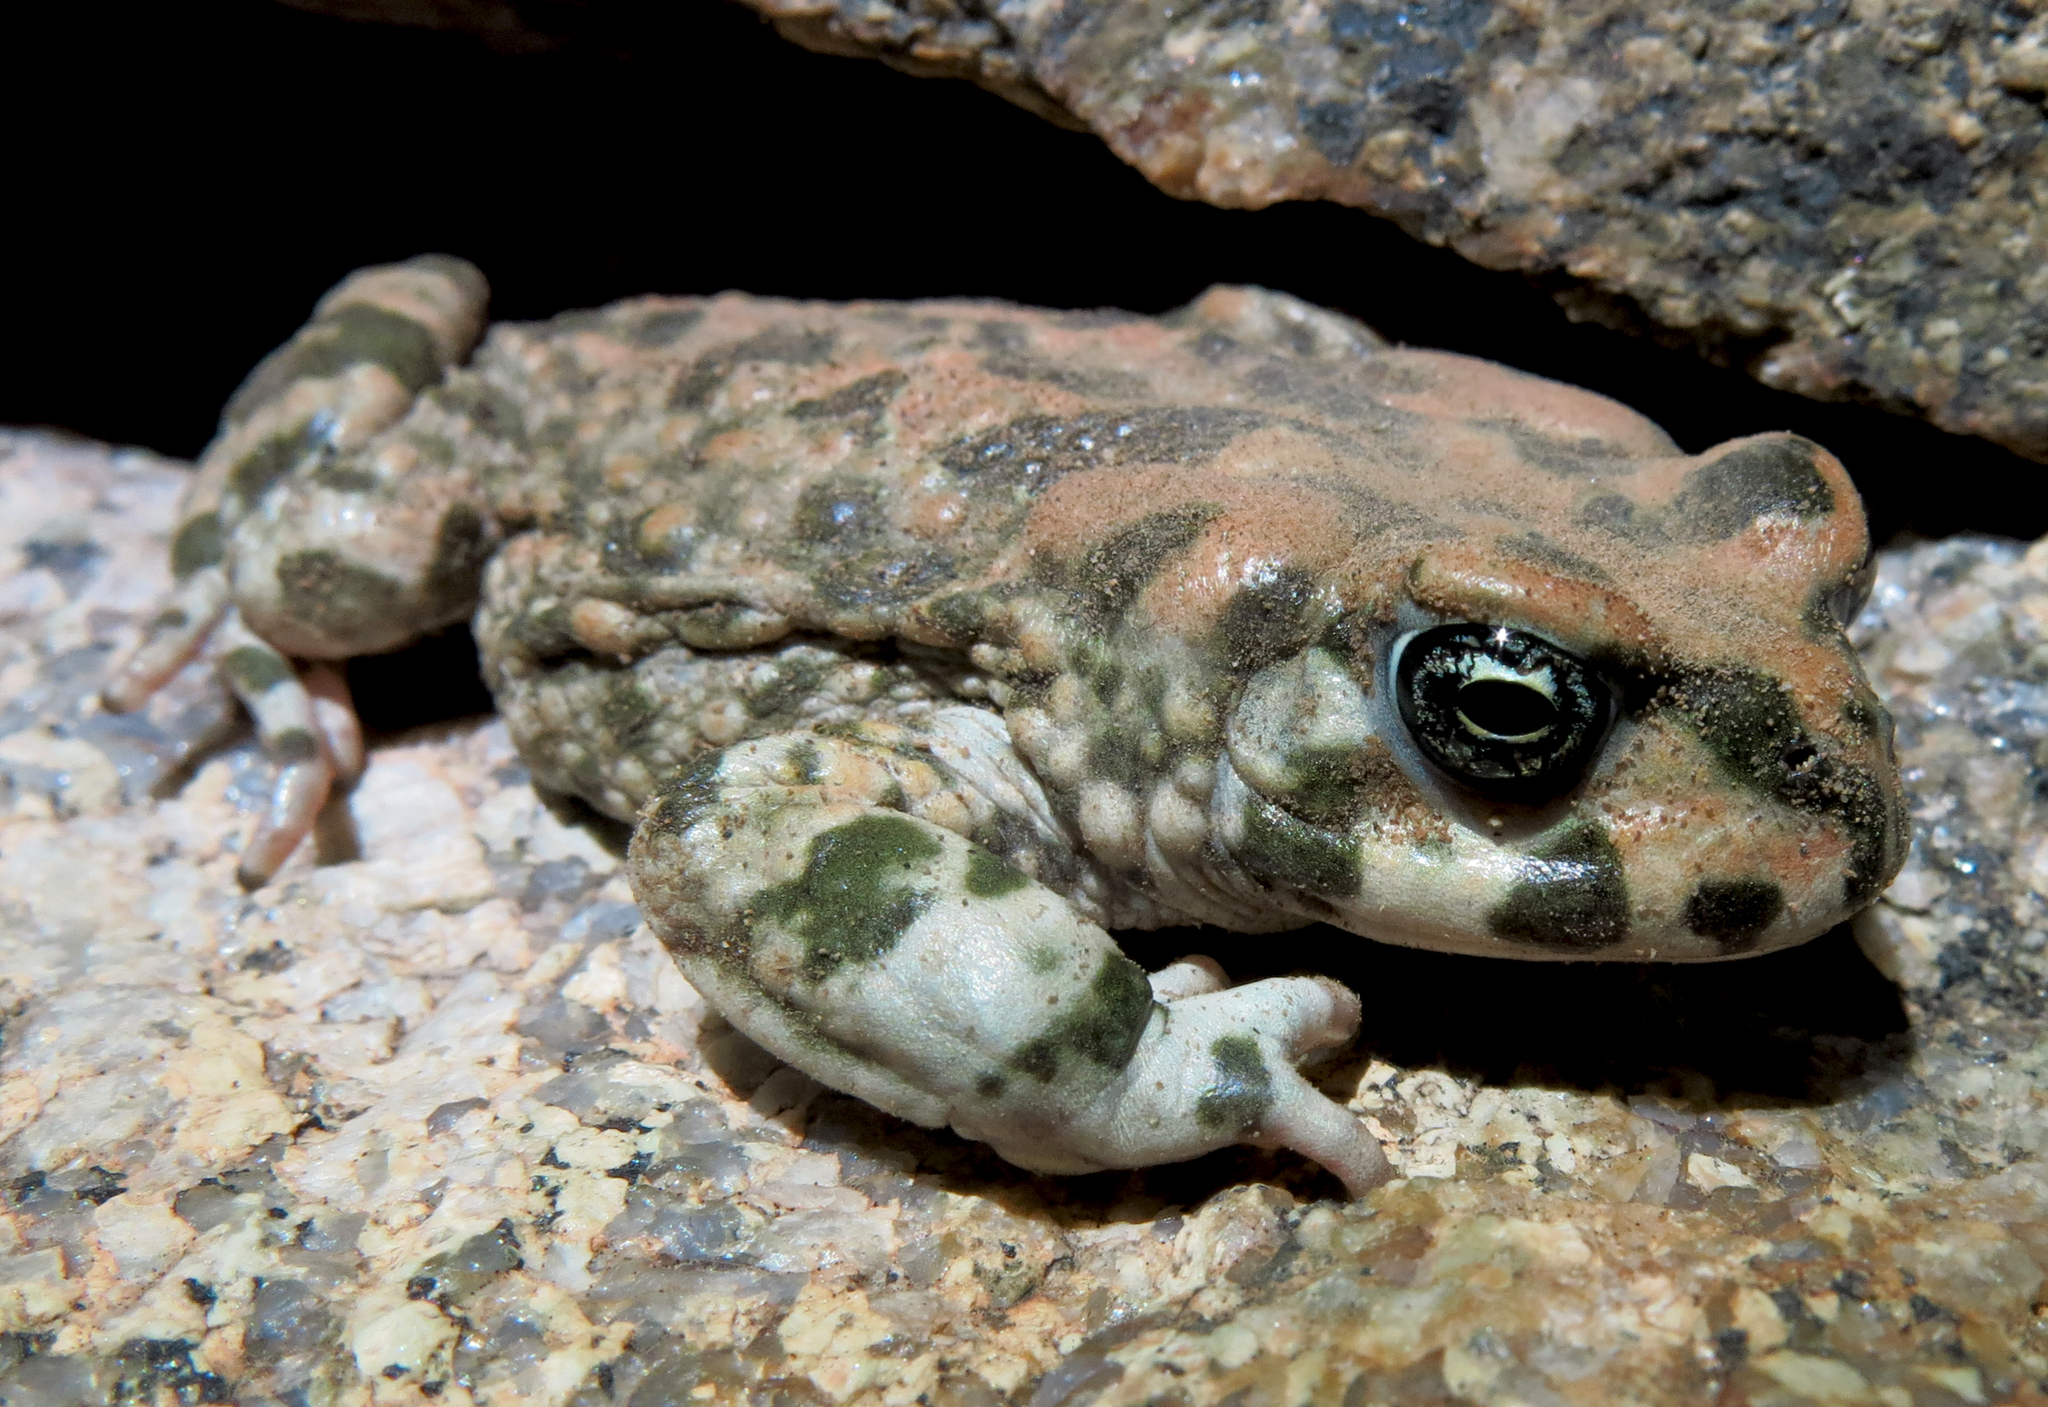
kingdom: Animalia
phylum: Chordata
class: Amphibia
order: Anura
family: Bufonidae
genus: Vandijkophrynus
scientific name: Vandijkophrynus robinsoni
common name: Paradise toad
